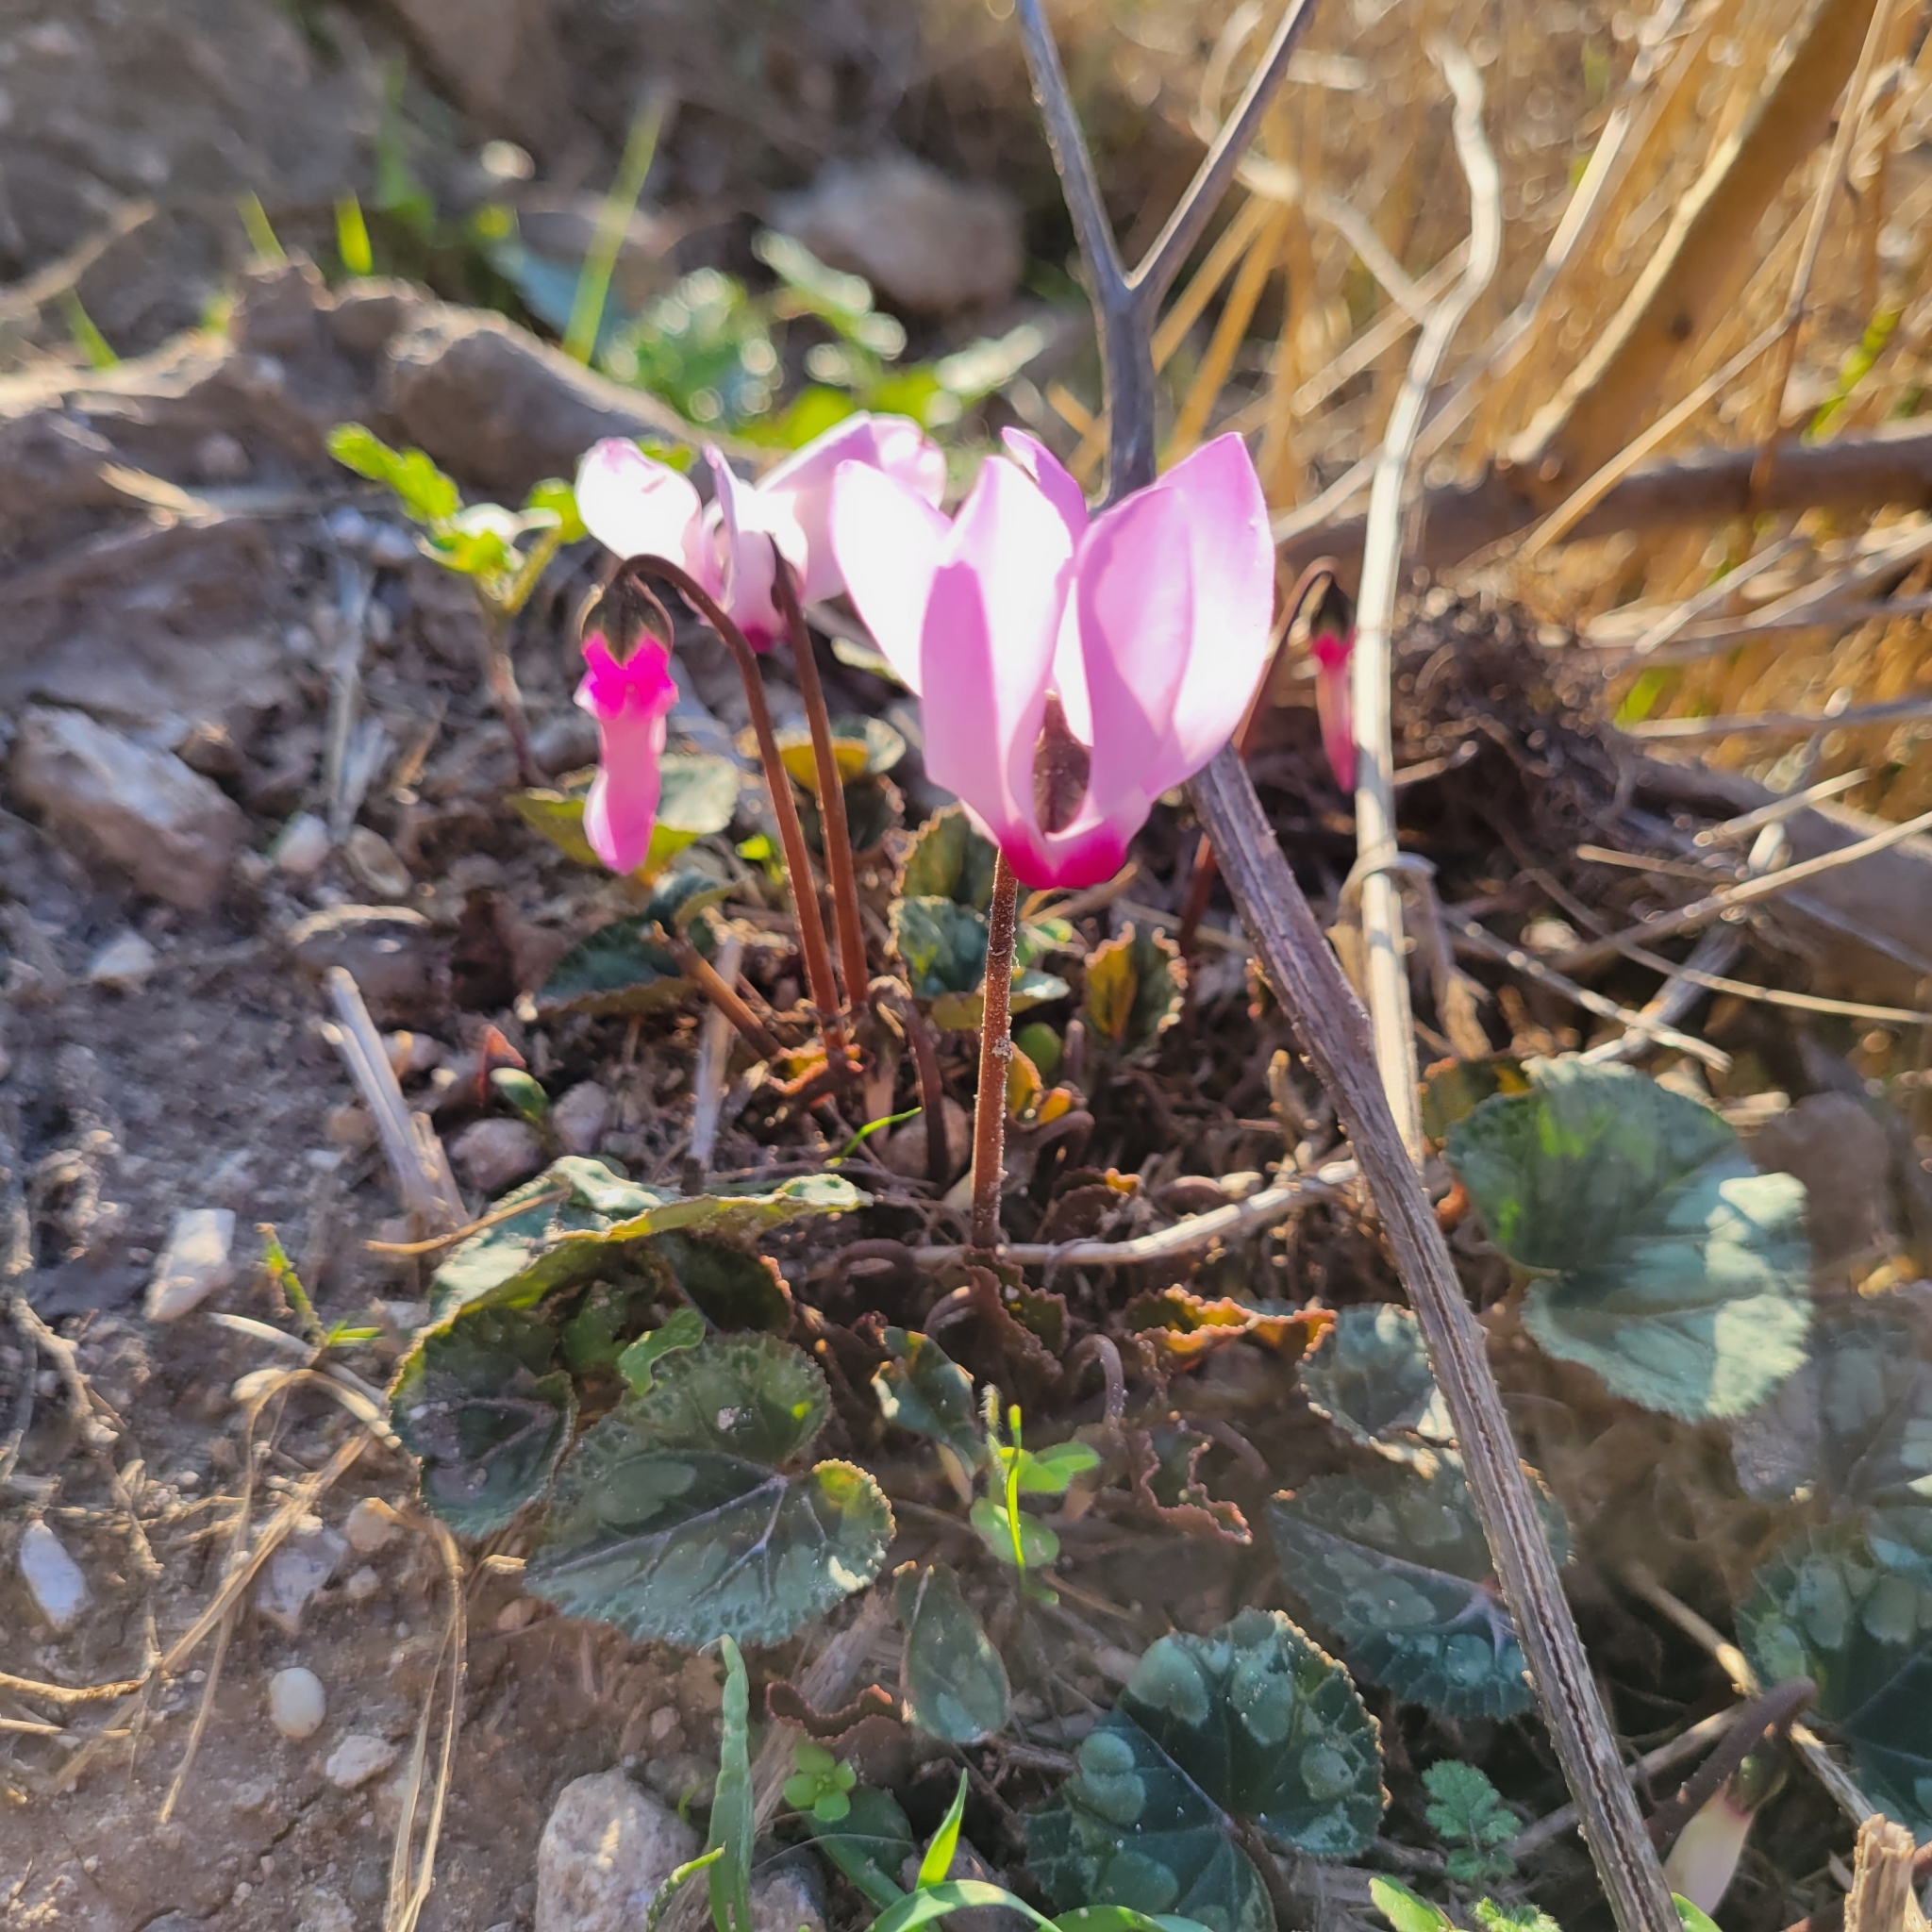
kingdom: Plantae
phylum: Tracheophyta
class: Magnoliopsida
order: Ericales
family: Primulaceae
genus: Cyclamen
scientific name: Cyclamen persicum
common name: Florist's cyclamen
